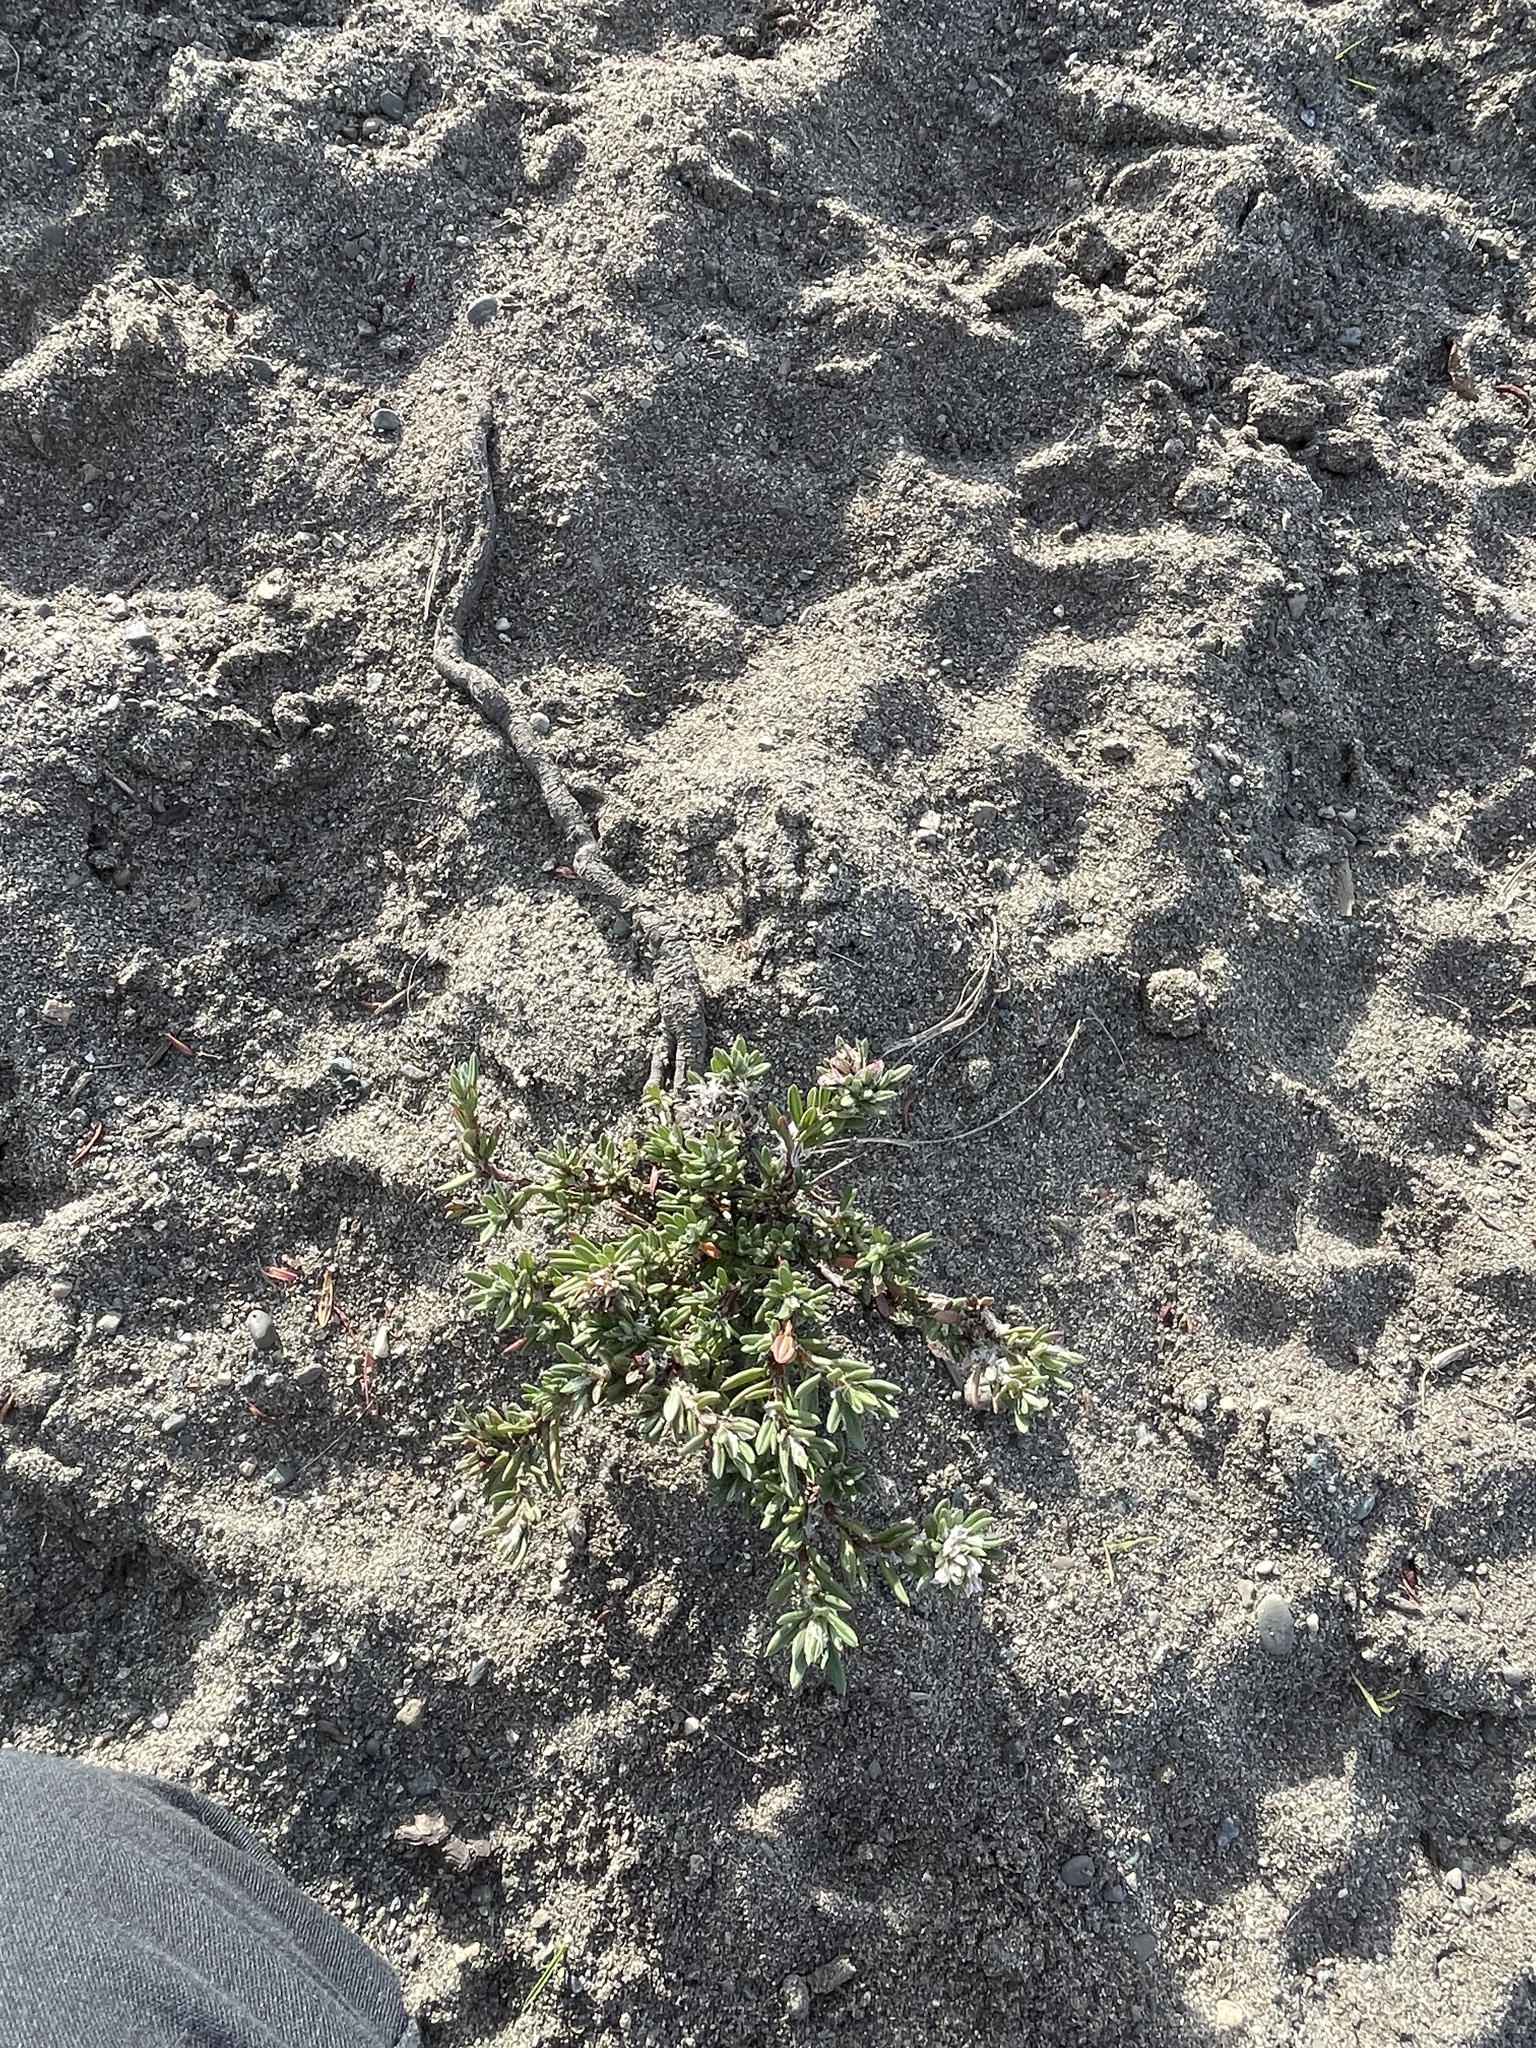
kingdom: Plantae
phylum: Tracheophyta
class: Magnoliopsida
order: Caryophyllales
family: Polygonaceae
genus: Polygonum
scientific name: Polygonum paronychia
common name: Dune knotweed
